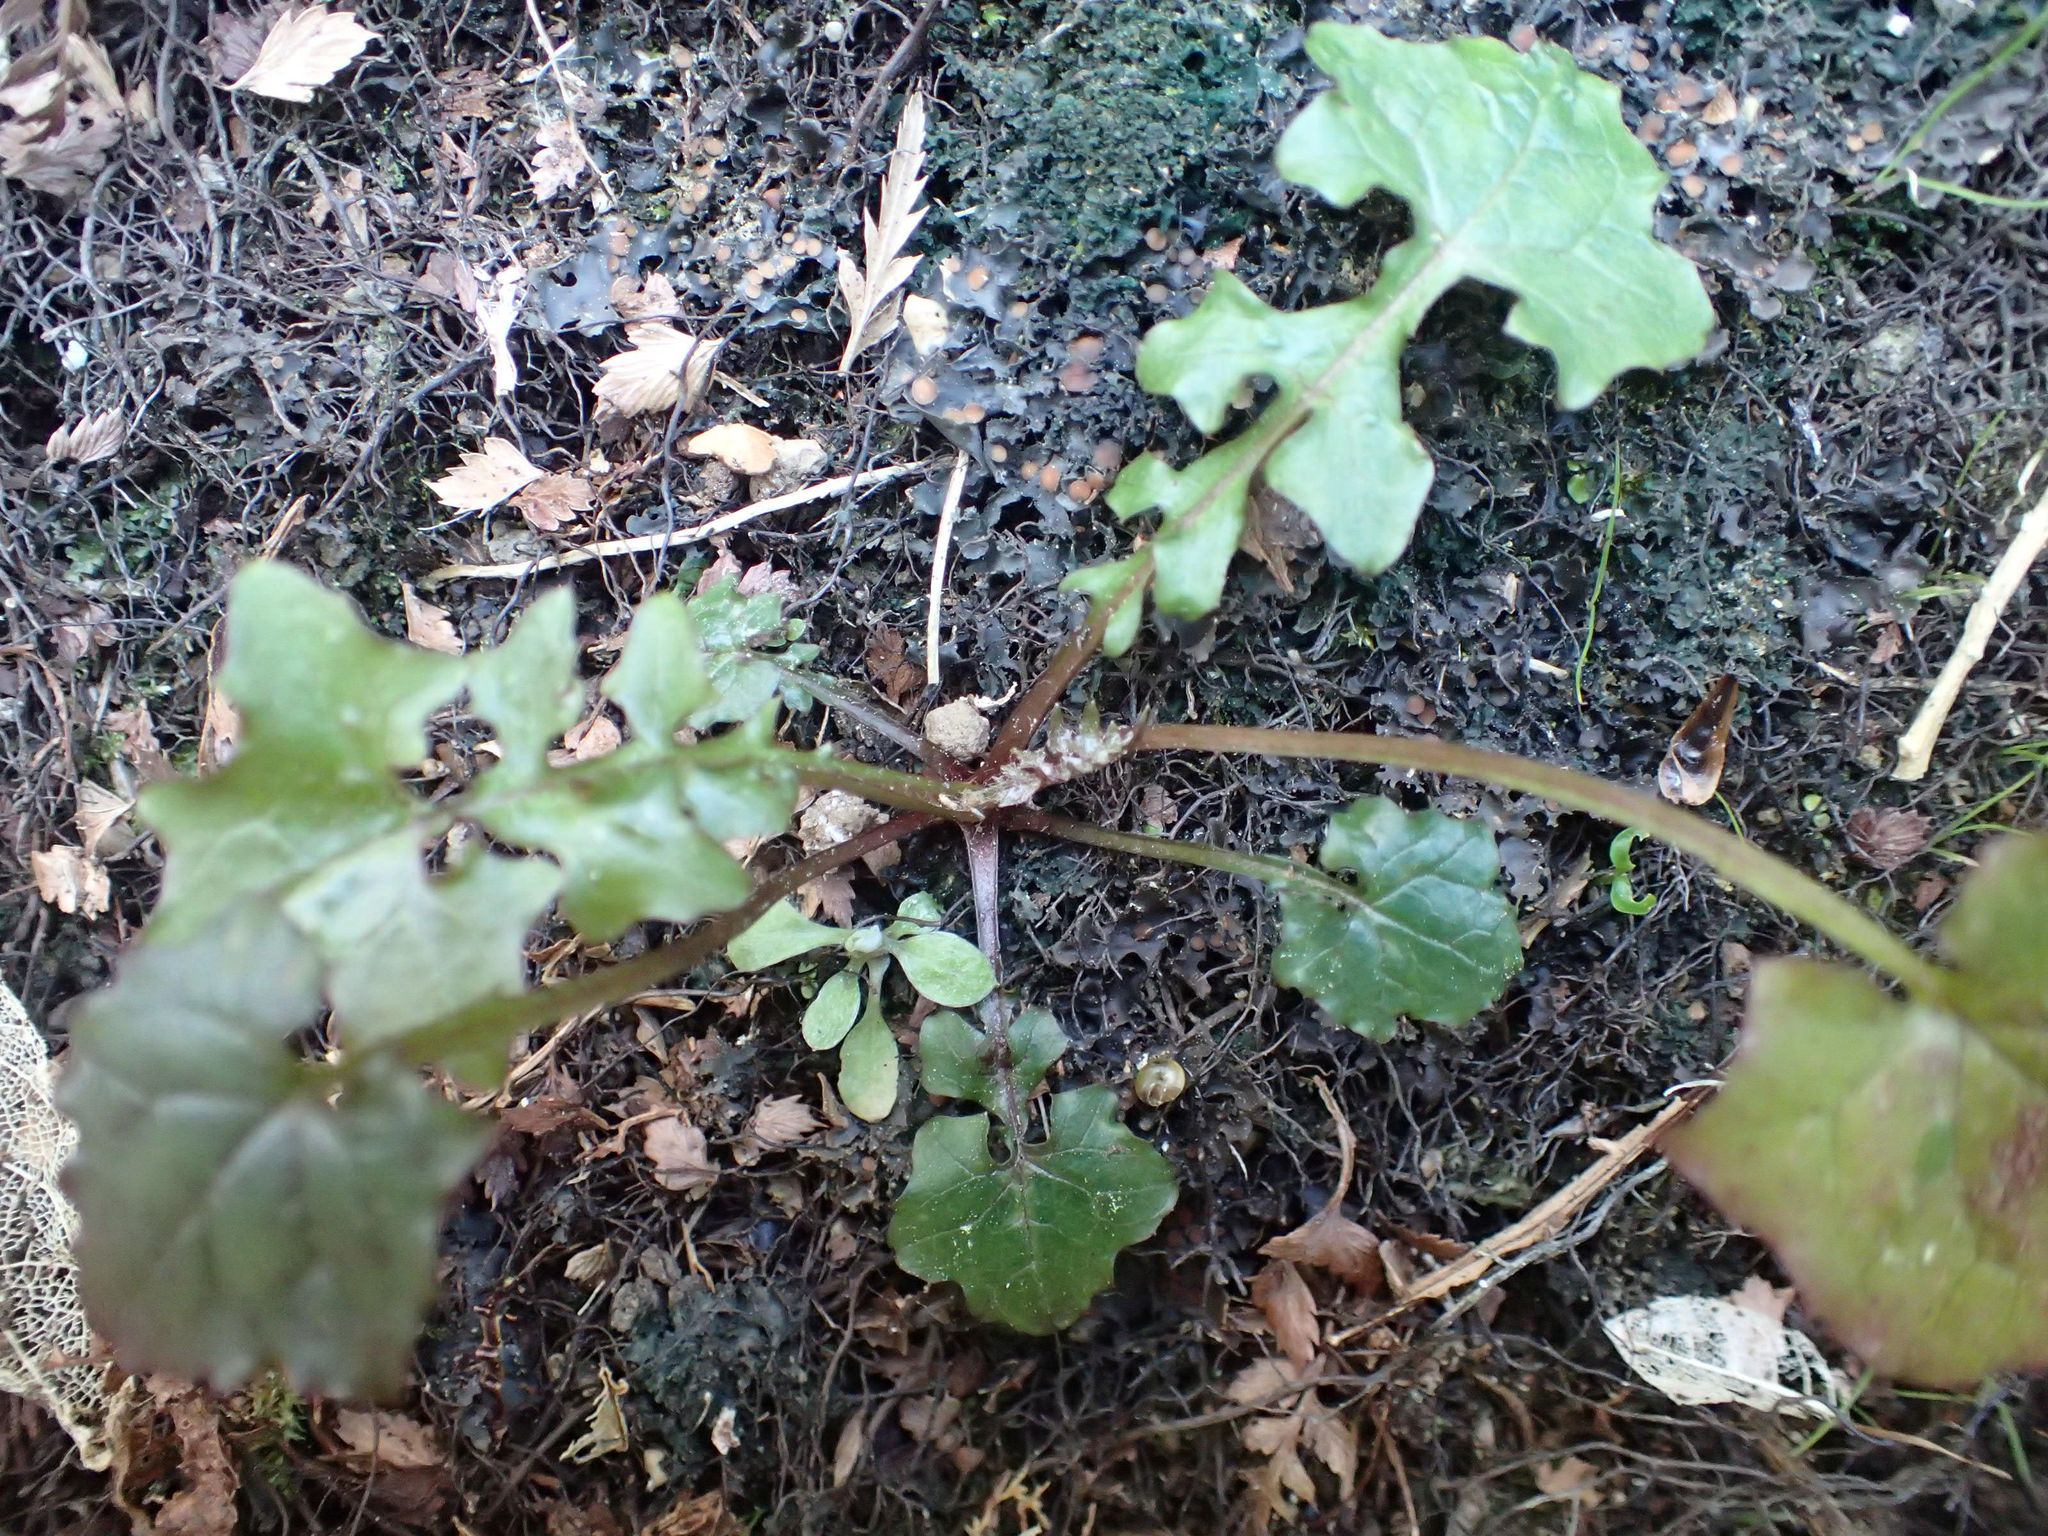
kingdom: Plantae
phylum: Tracheophyta
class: Magnoliopsida
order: Asterales
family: Asteraceae
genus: Mycelis
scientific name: Mycelis muralis
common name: Wall lettuce
